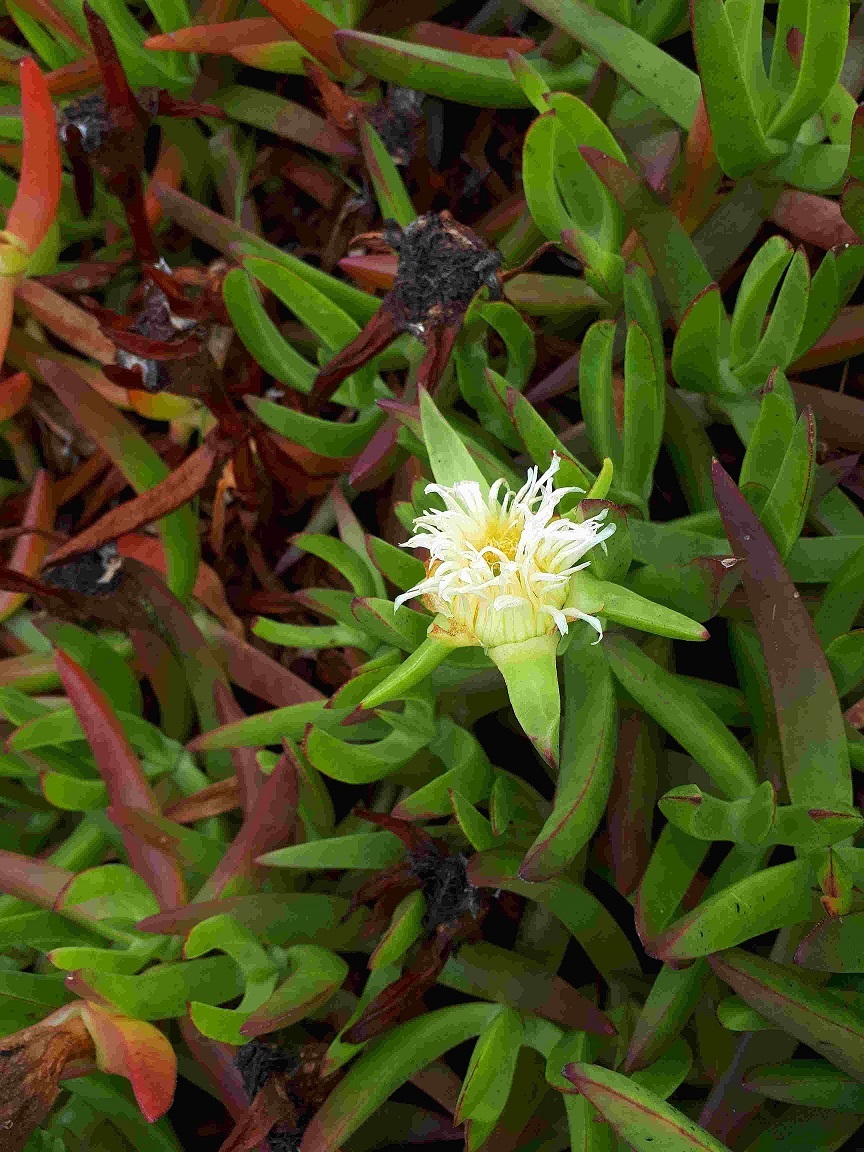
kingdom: Plantae
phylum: Tracheophyta
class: Magnoliopsida
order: Caryophyllales
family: Aizoaceae
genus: Carpobrotus
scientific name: Carpobrotus edulis
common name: Hottentot-fig
